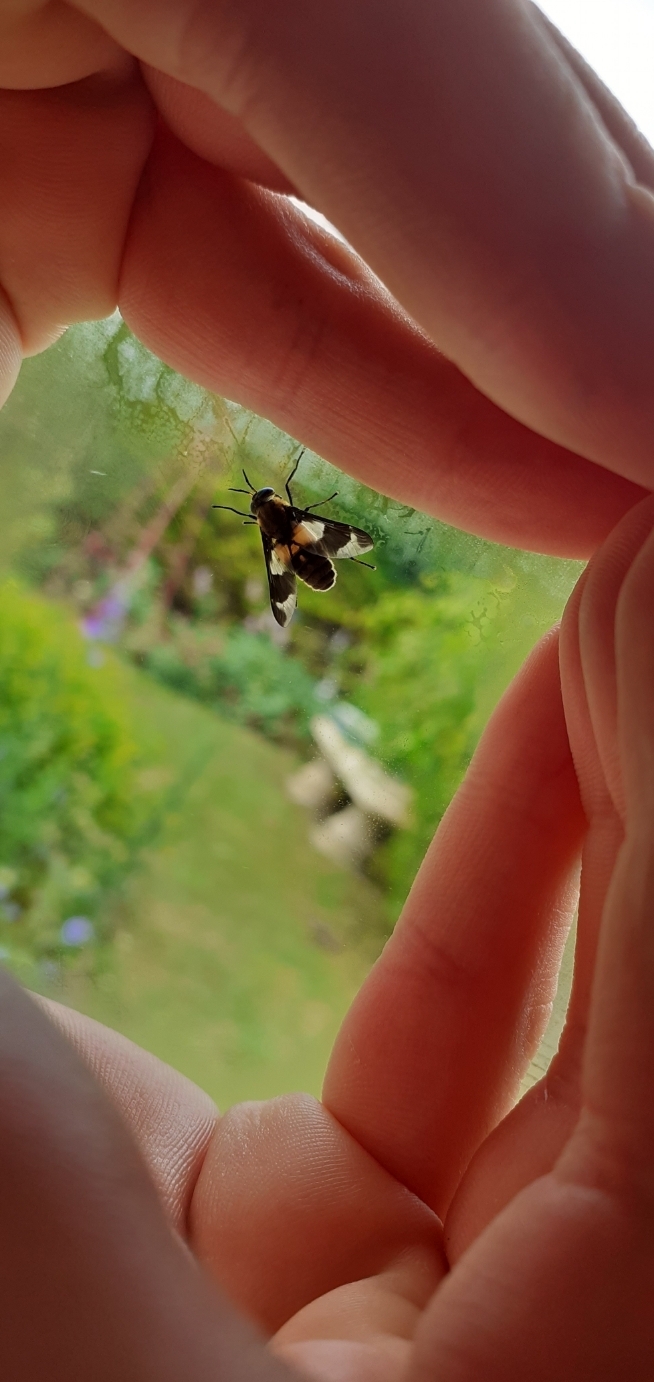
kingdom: Animalia
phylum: Arthropoda
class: Insecta
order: Diptera
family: Tabanidae
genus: Chrysops
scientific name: Chrysops caecutiens
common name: Splayed deerfly
